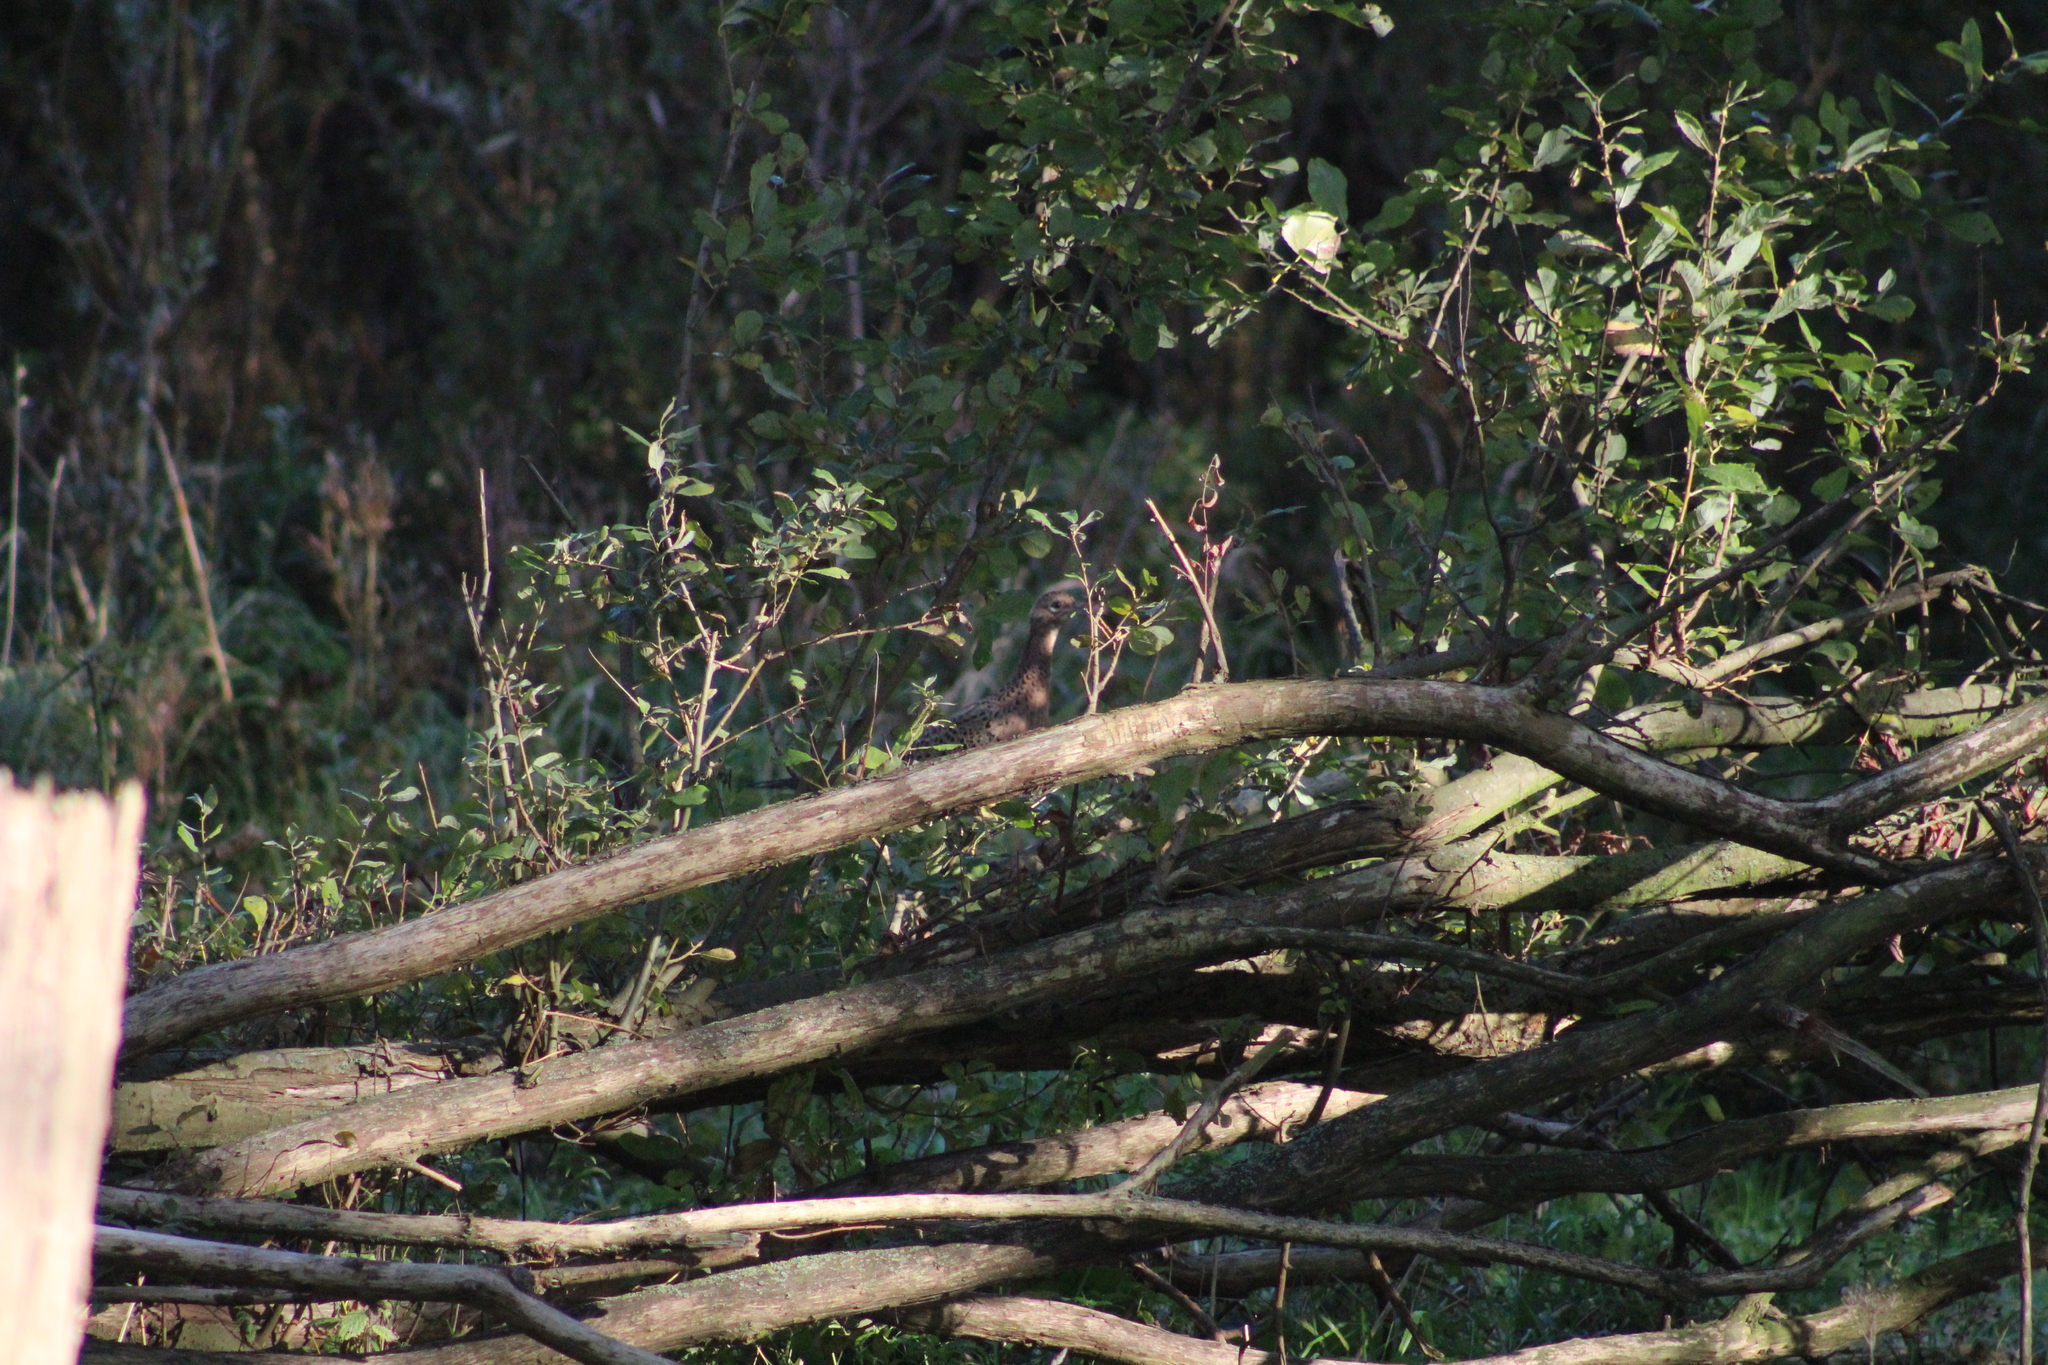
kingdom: Animalia
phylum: Chordata
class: Aves
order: Galliformes
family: Phasianidae
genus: Phasianus
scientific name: Phasianus colchicus
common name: Common pheasant
